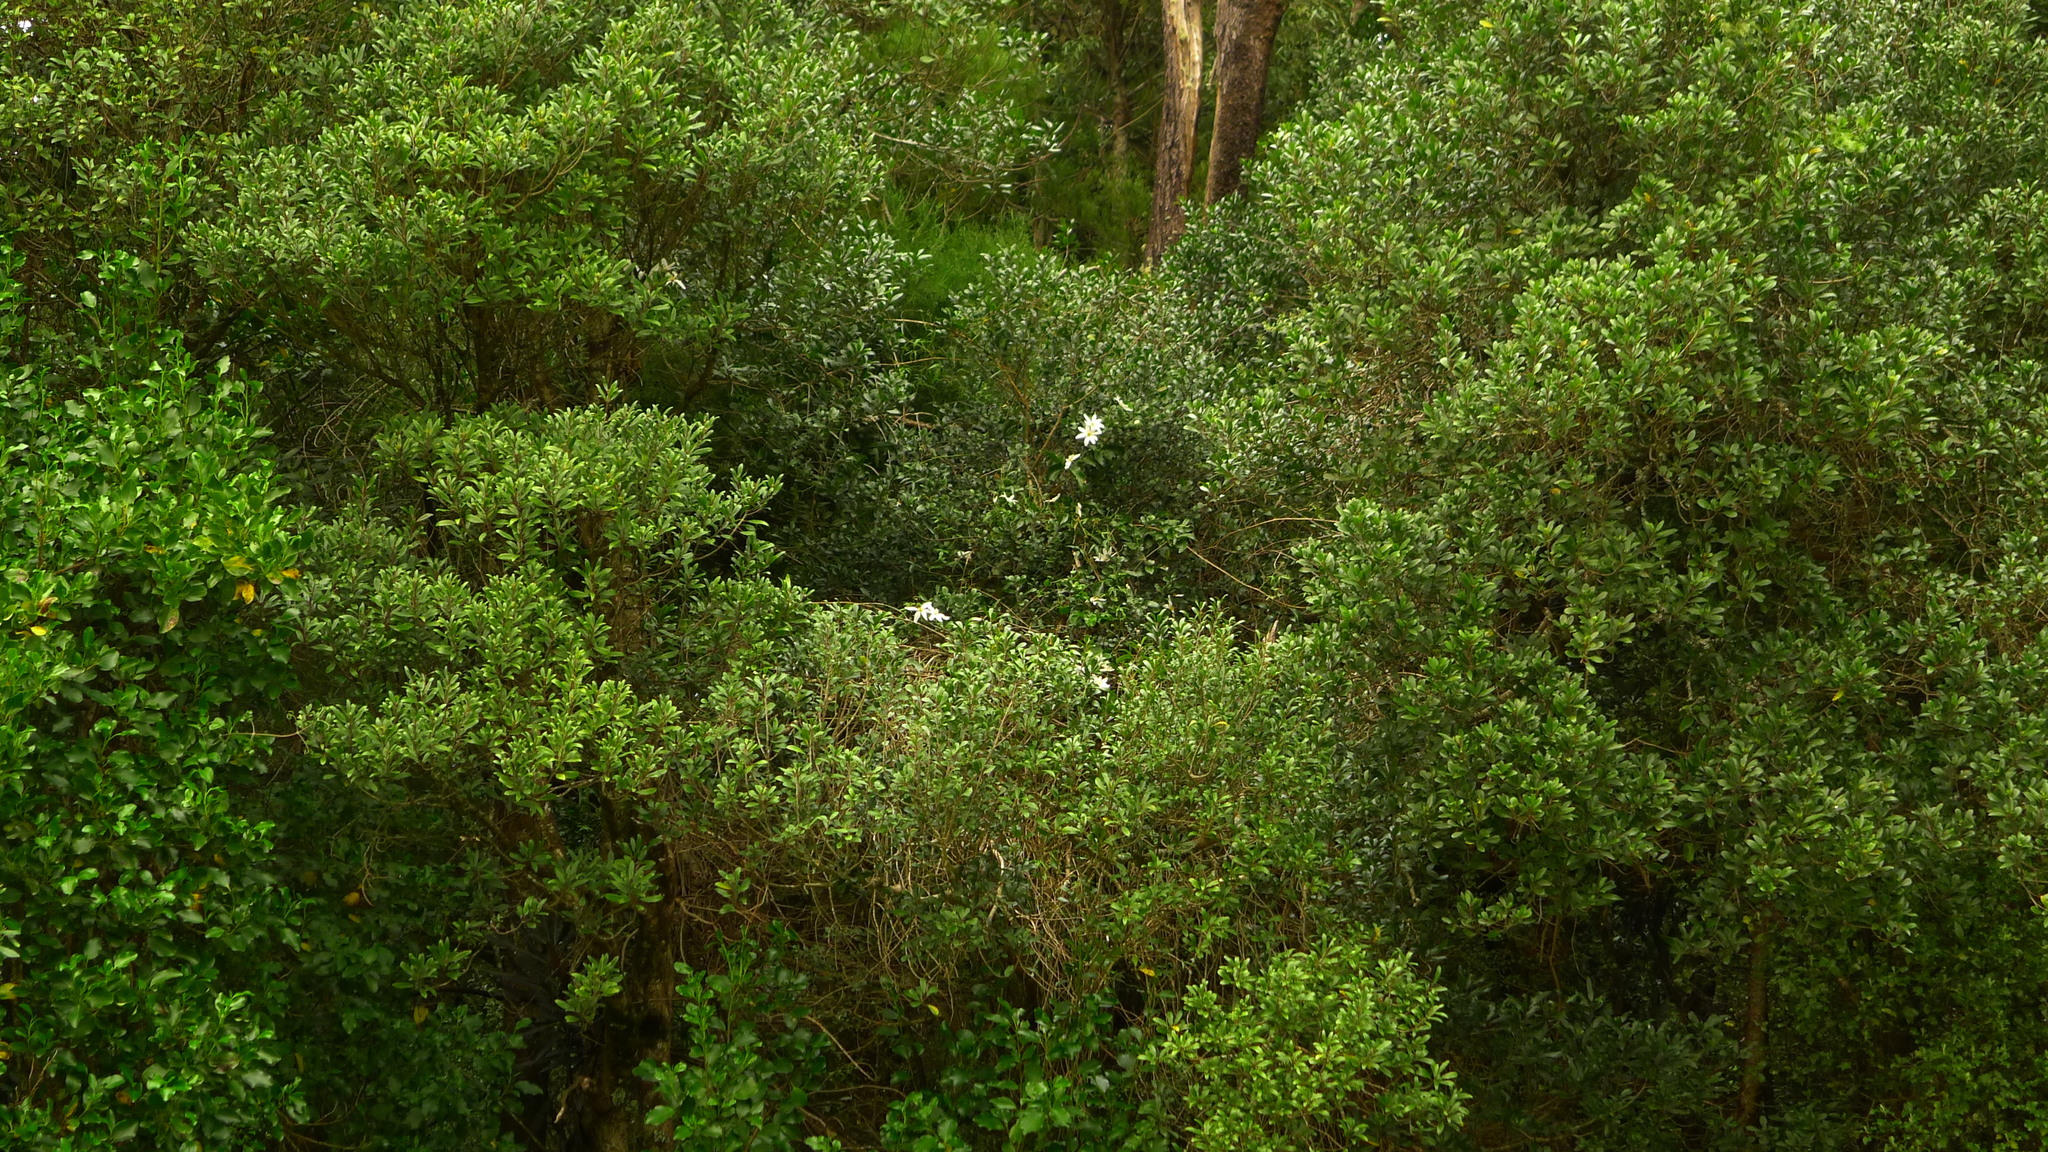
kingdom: Plantae
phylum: Tracheophyta
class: Magnoliopsida
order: Ranunculales
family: Ranunculaceae
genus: Clematis
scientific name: Clematis paniculata
